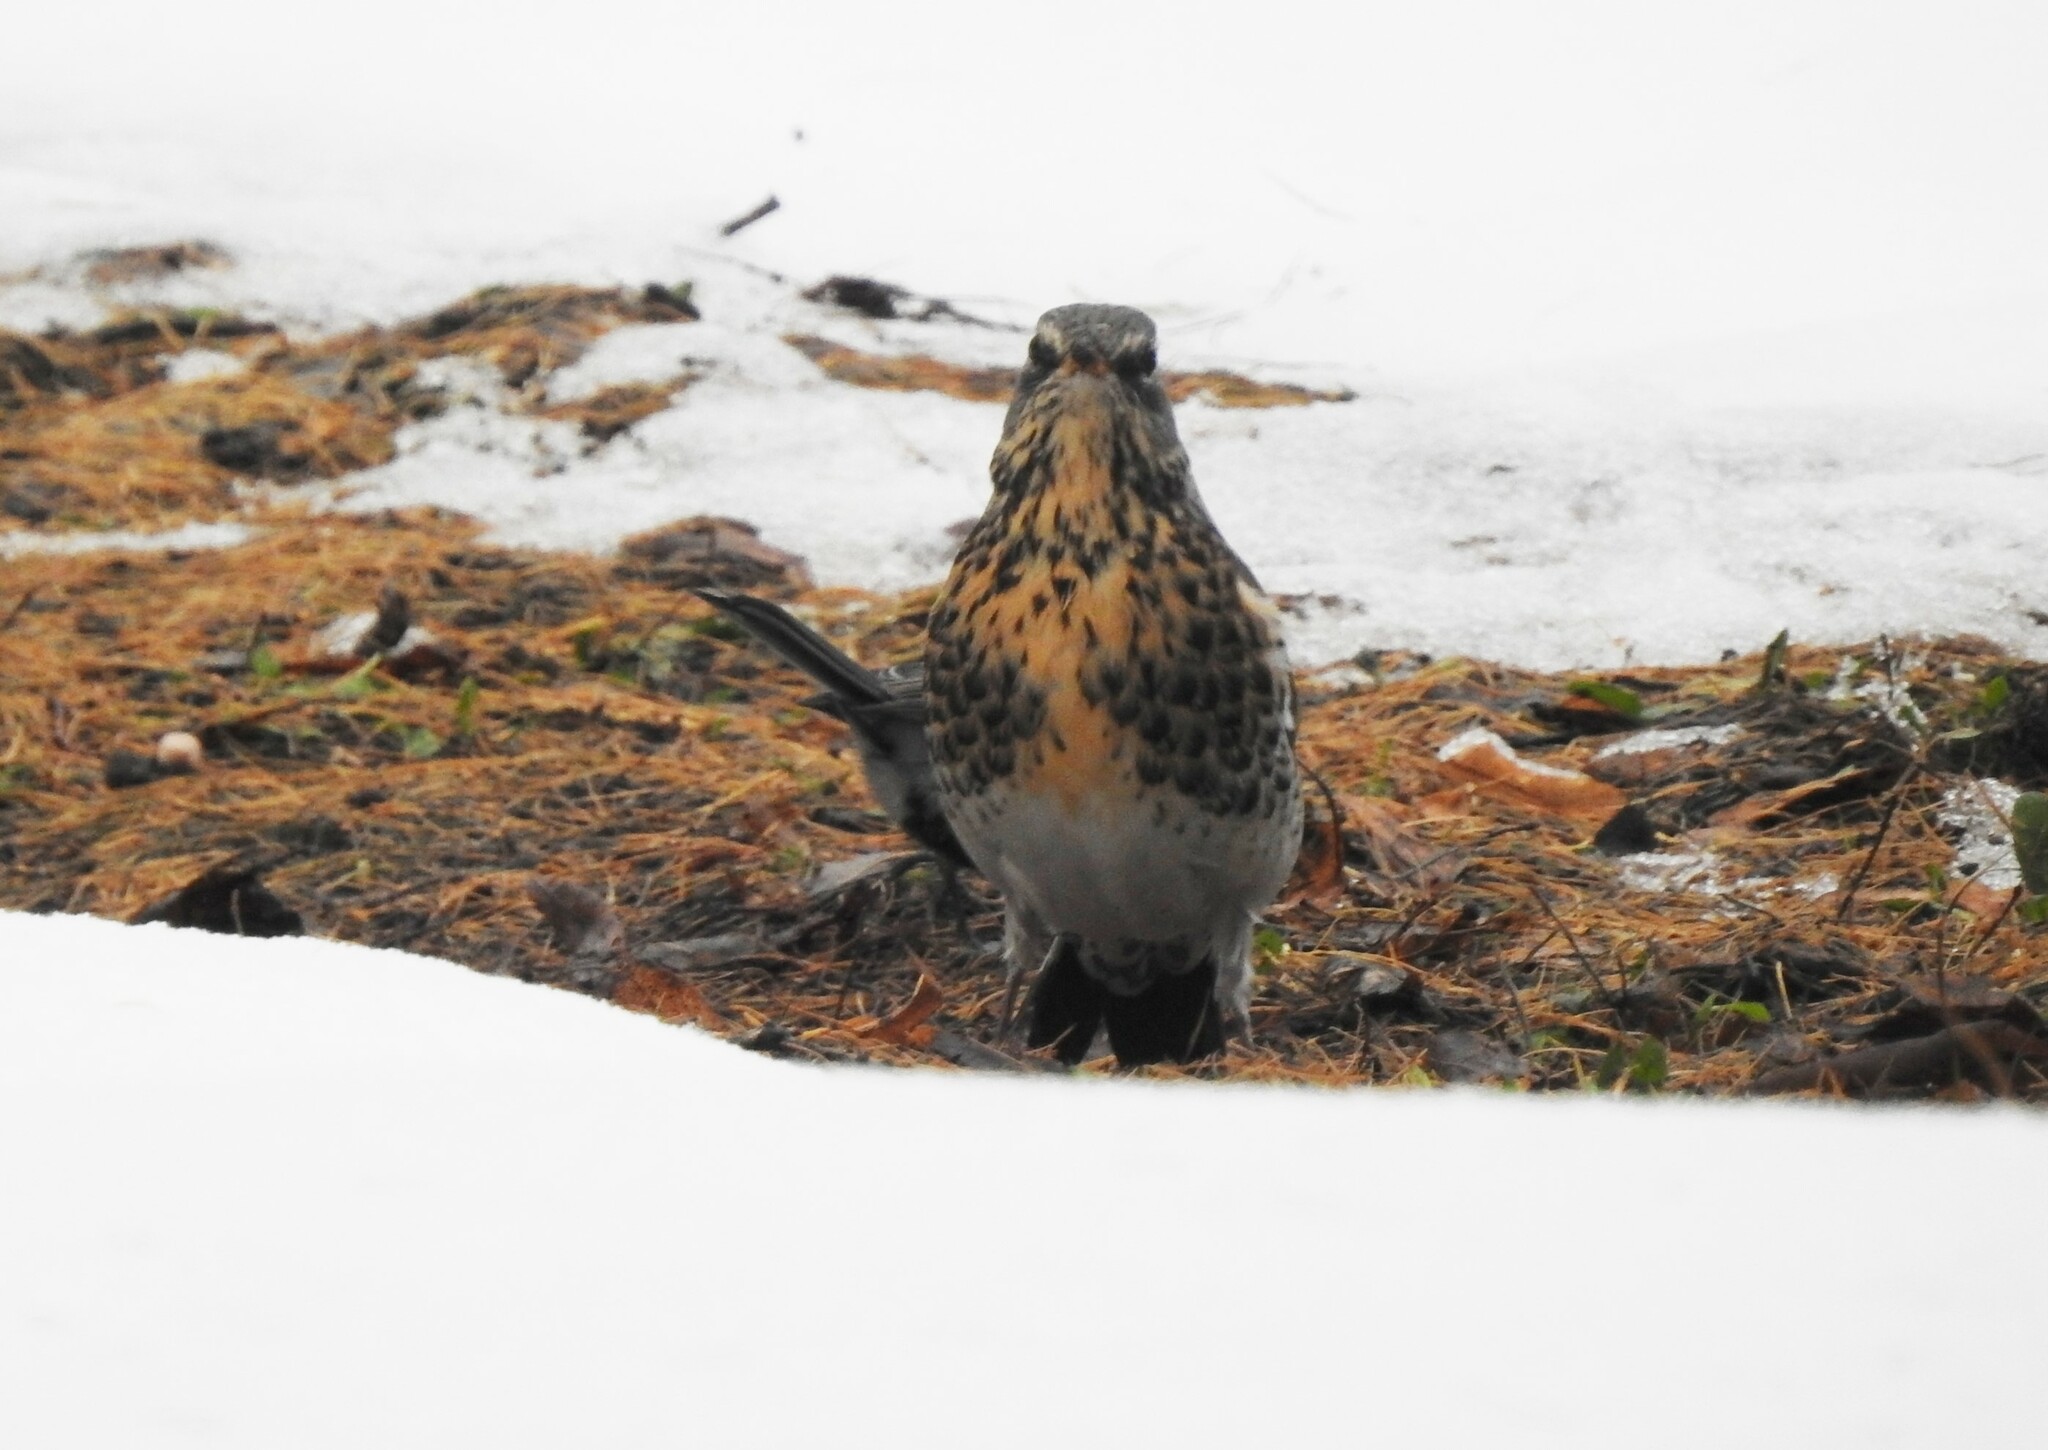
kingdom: Animalia
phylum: Chordata
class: Aves
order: Passeriformes
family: Turdidae
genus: Turdus
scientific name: Turdus pilaris
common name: Fieldfare
